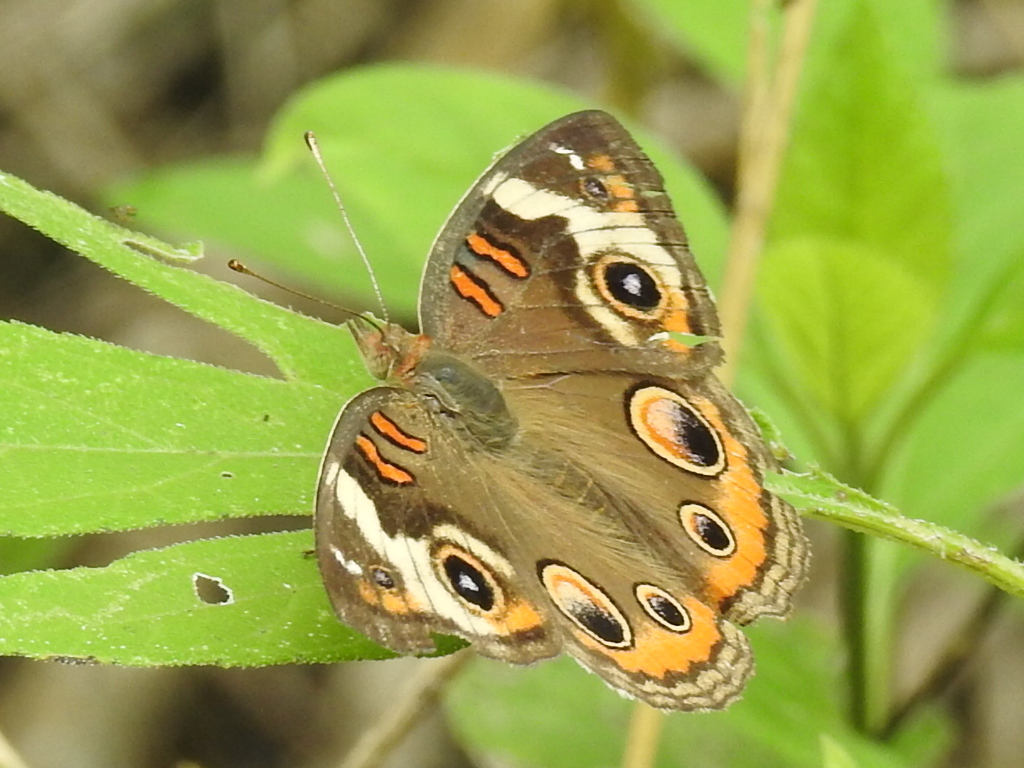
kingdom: Animalia
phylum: Arthropoda
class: Insecta
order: Lepidoptera
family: Nymphalidae
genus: Junonia
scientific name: Junonia coenia
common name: Common buckeye
